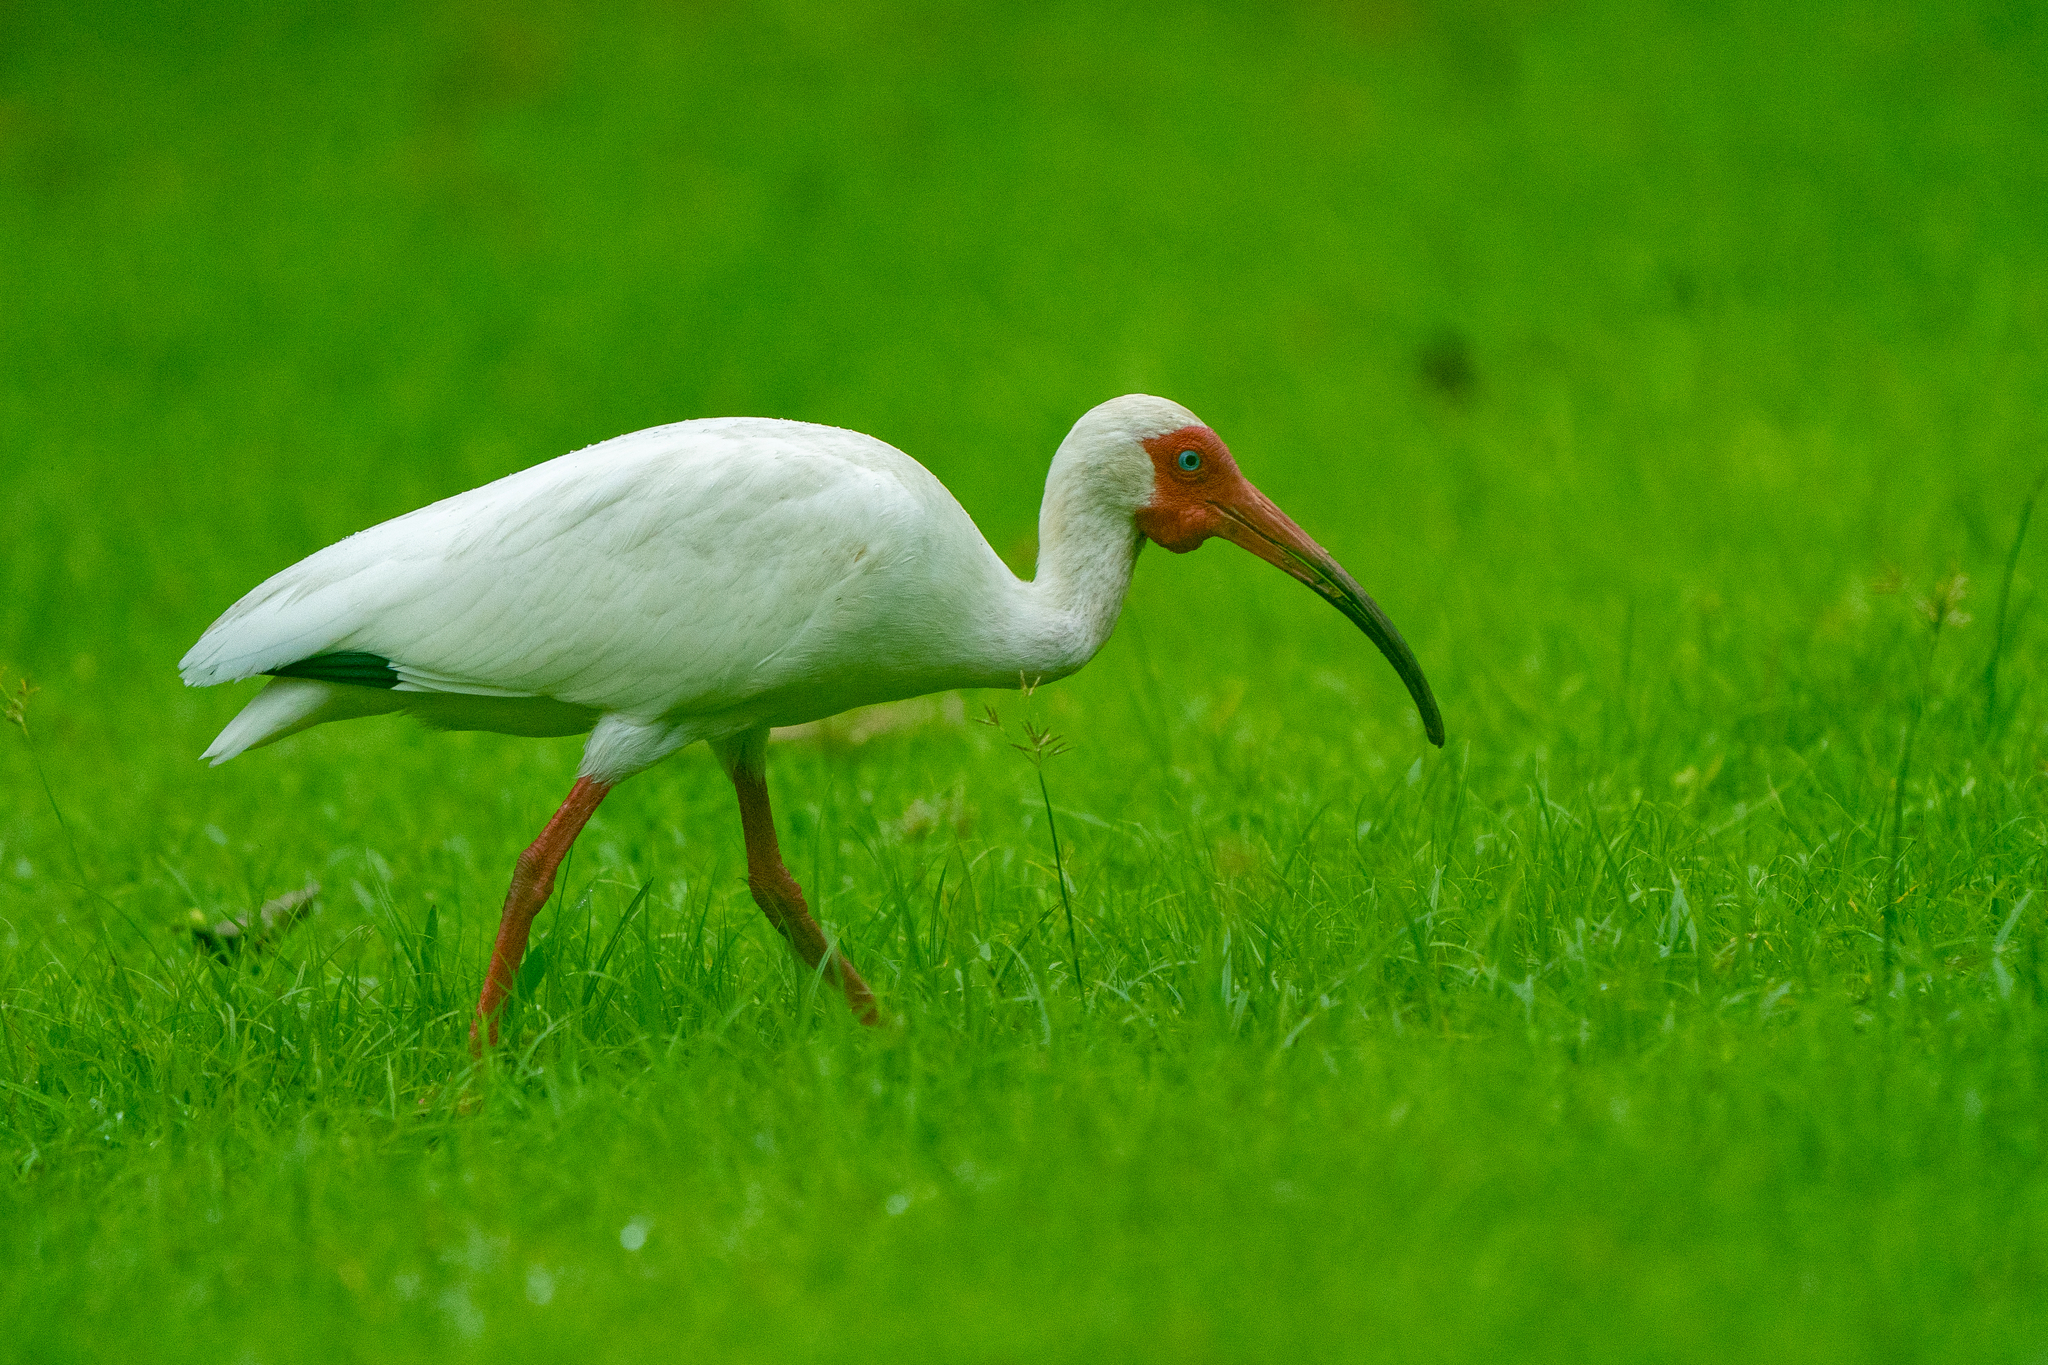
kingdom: Animalia
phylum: Chordata
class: Aves
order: Pelecaniformes
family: Threskiornithidae
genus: Eudocimus
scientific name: Eudocimus albus
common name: White ibis
